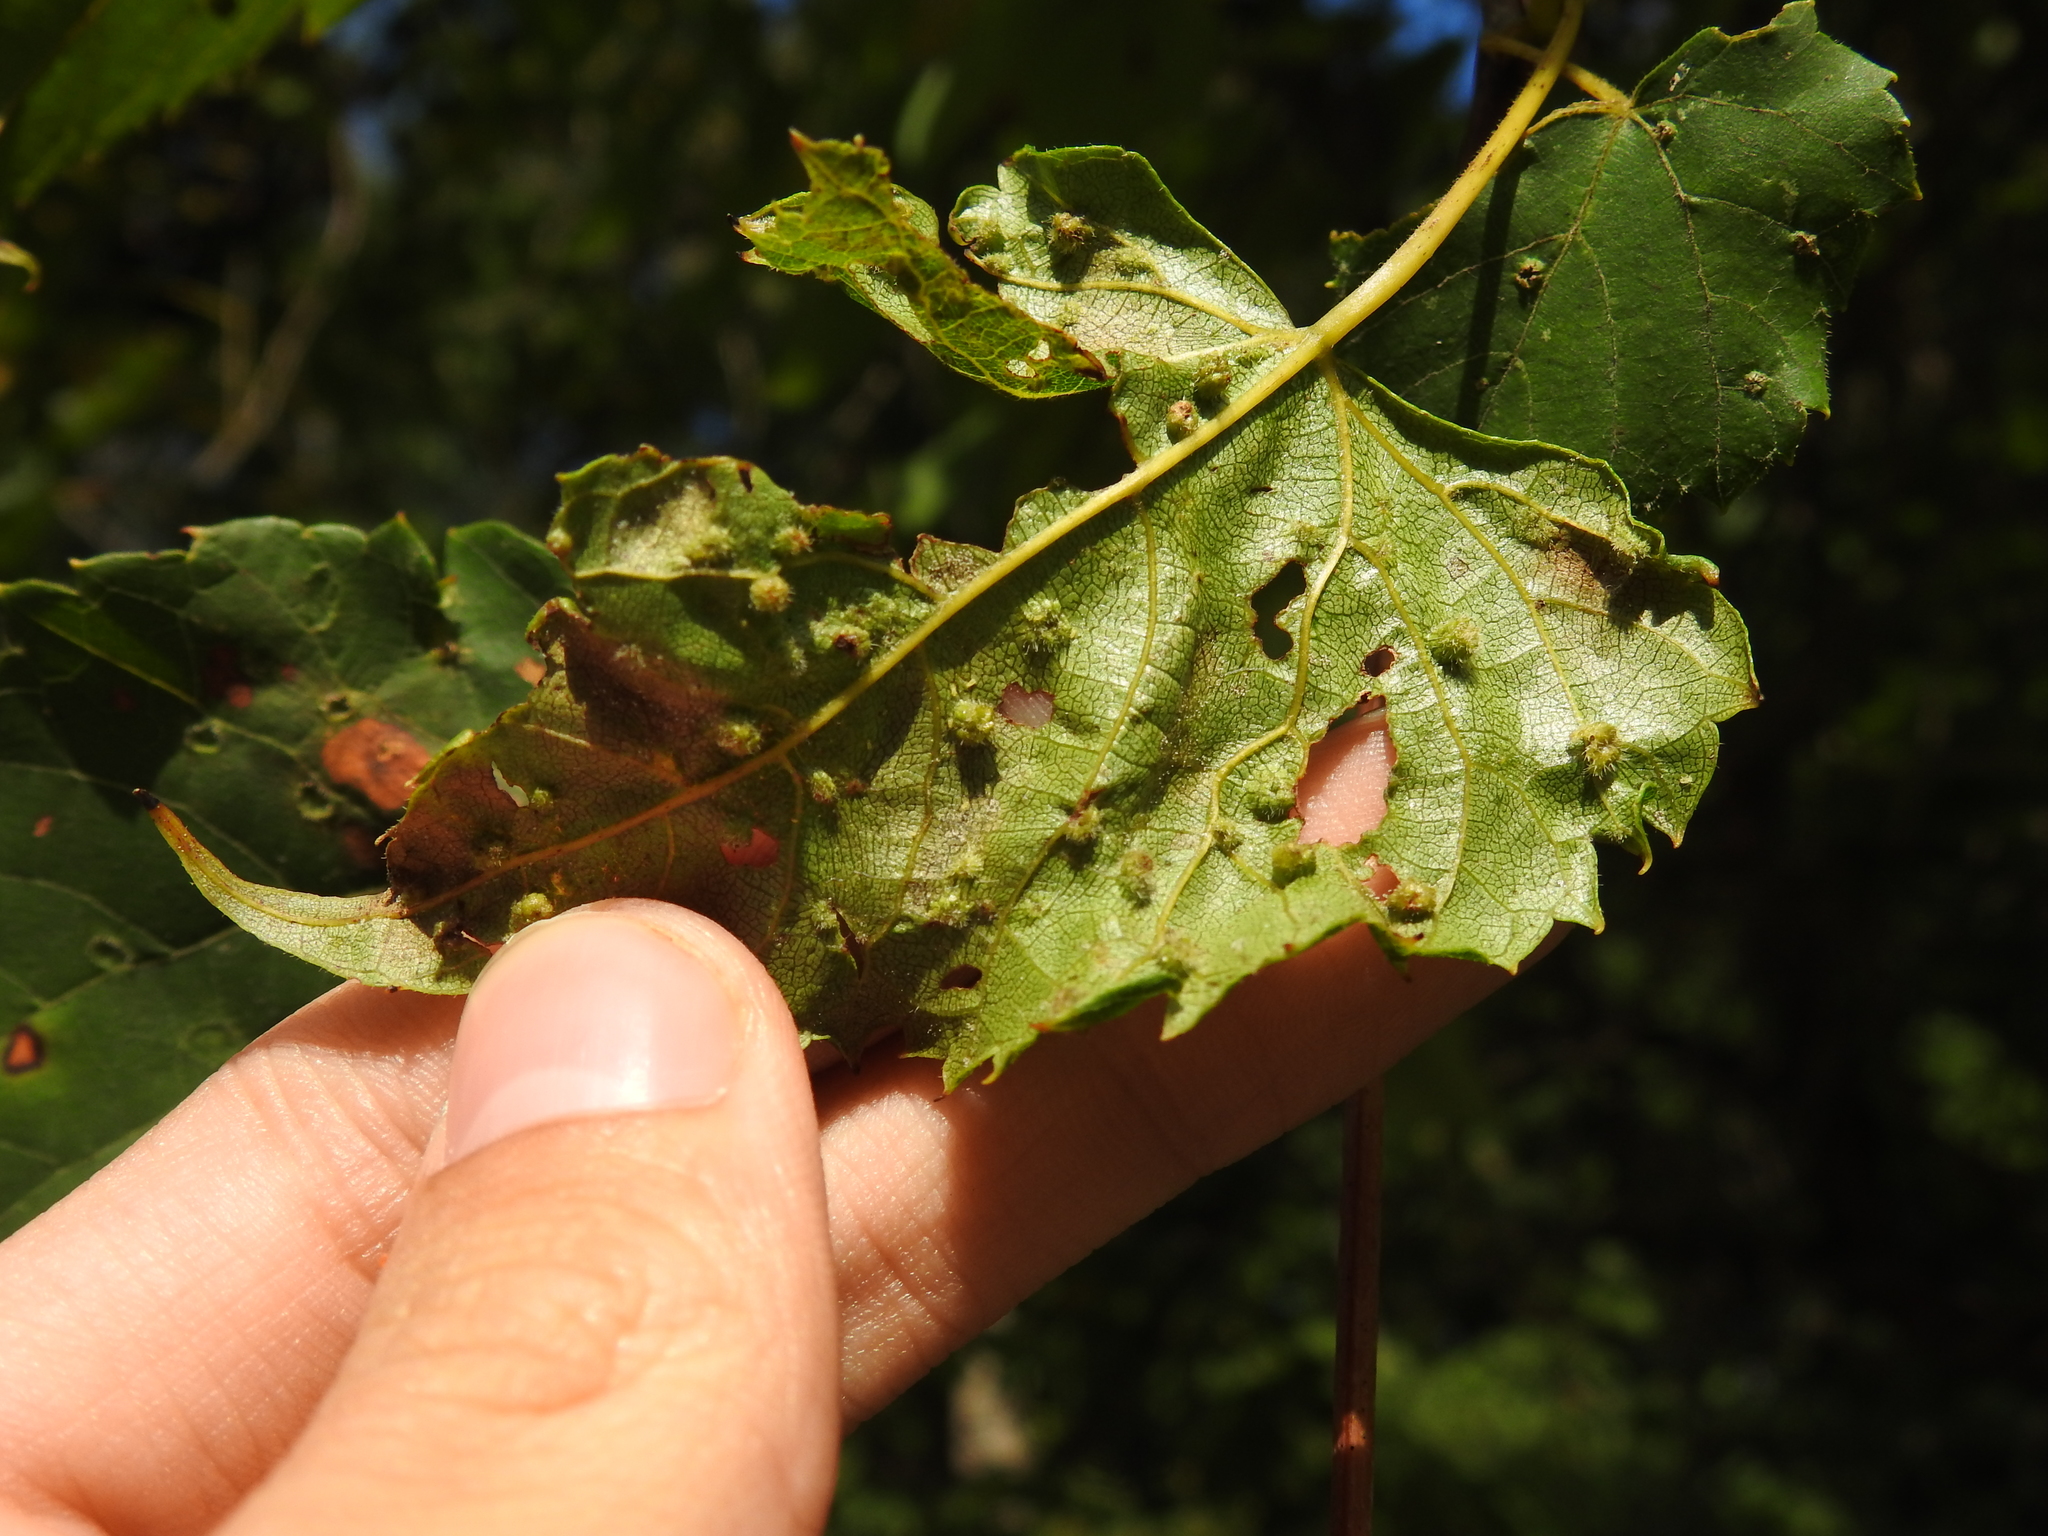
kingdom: Animalia
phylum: Arthropoda
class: Insecta
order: Hemiptera
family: Phylloxeridae
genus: Daktulosphaira
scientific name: Daktulosphaira vitifoliae
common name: Grape phylloxera
